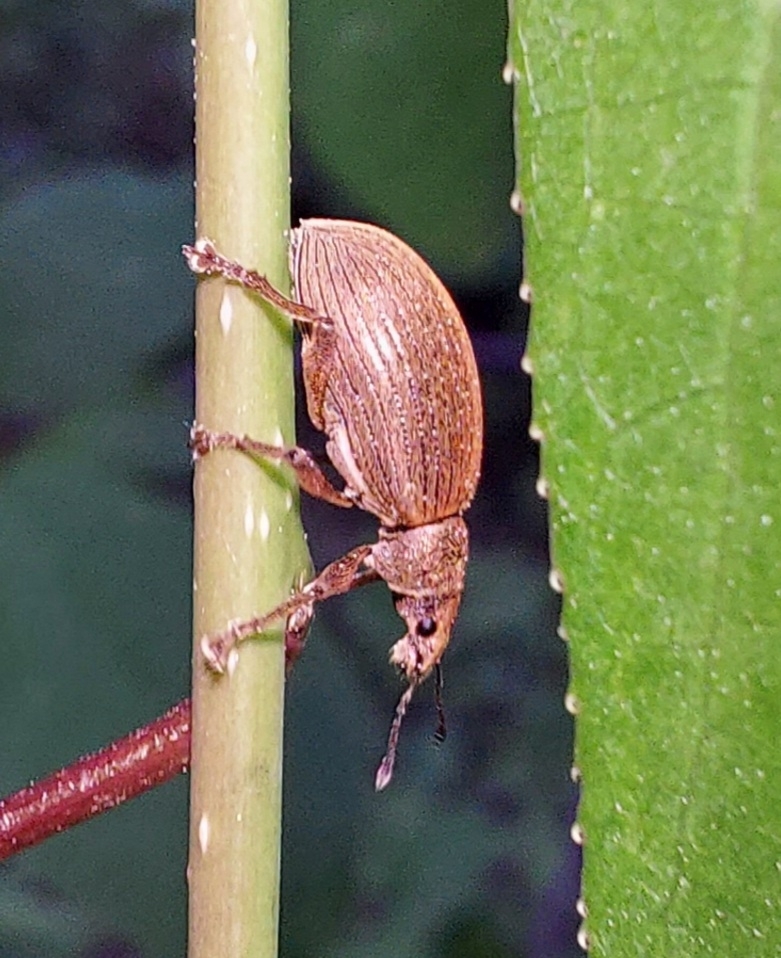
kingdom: Animalia
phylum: Arthropoda
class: Insecta
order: Coleoptera
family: Curculionidae
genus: Polydrusus
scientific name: Polydrusus mollis
